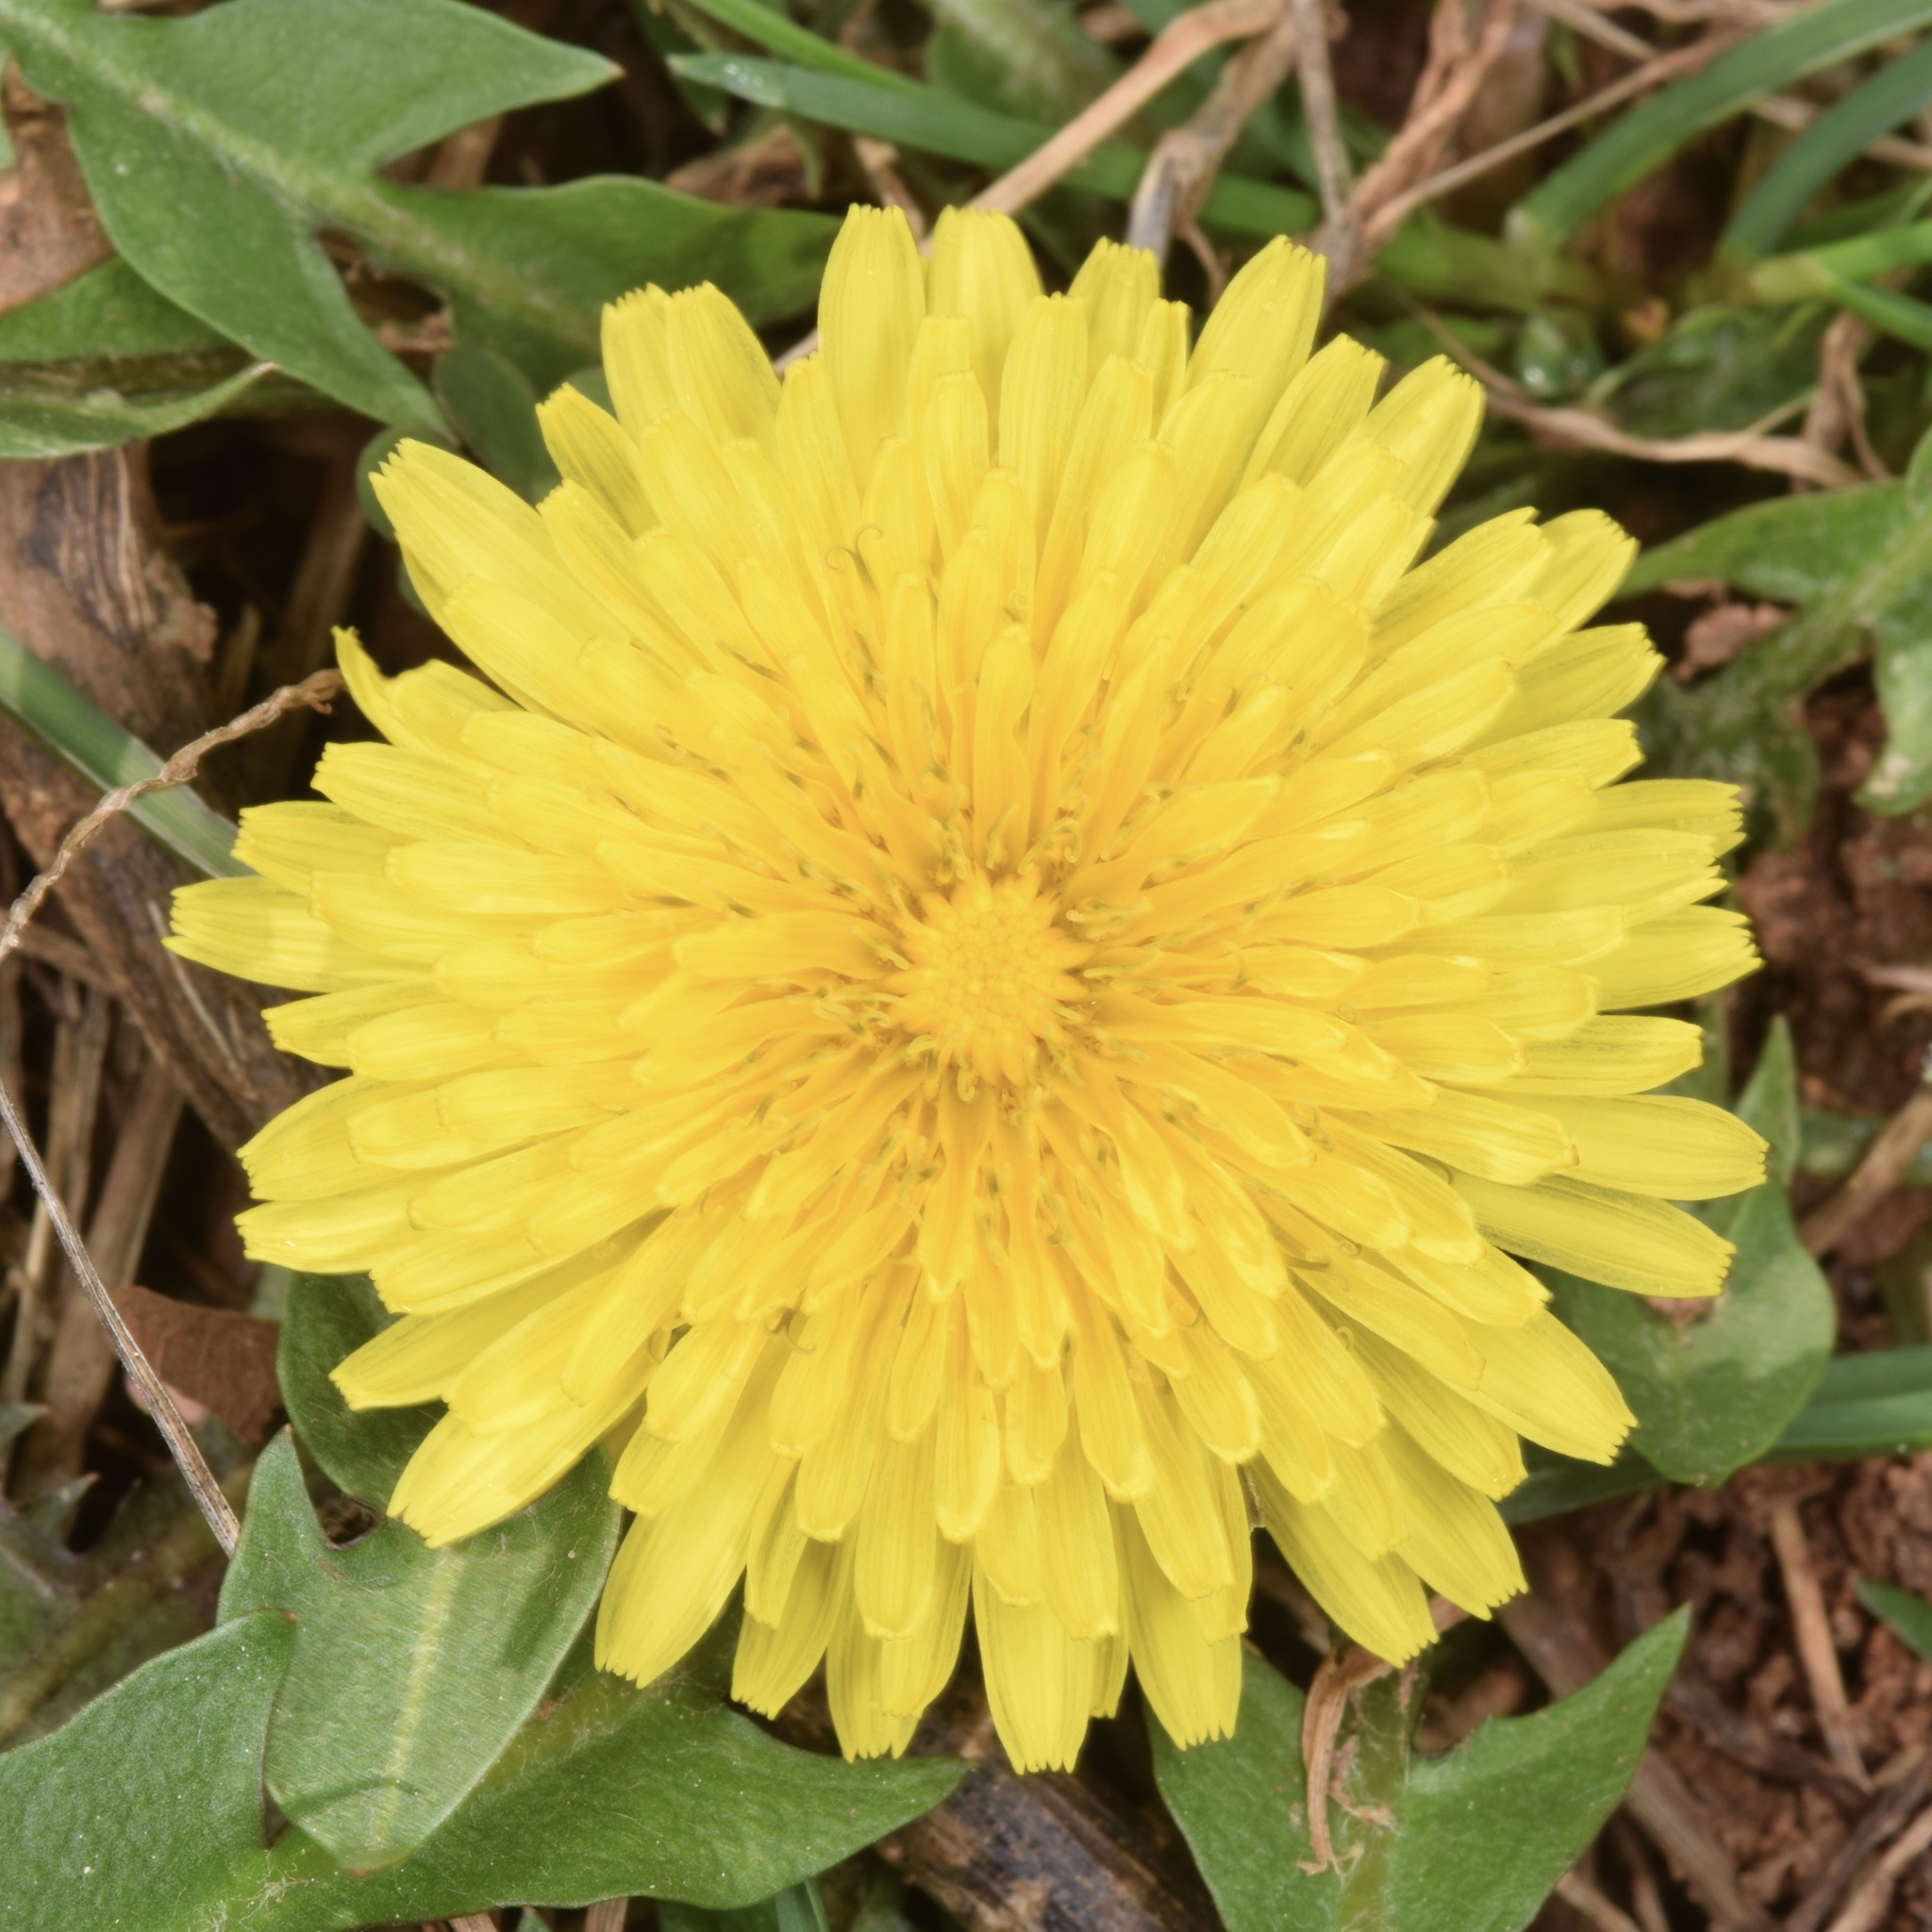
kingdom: Plantae
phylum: Tracheophyta
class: Magnoliopsida
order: Asterales
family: Asteraceae
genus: Taraxacum
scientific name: Taraxacum officinale
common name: Common dandelion
